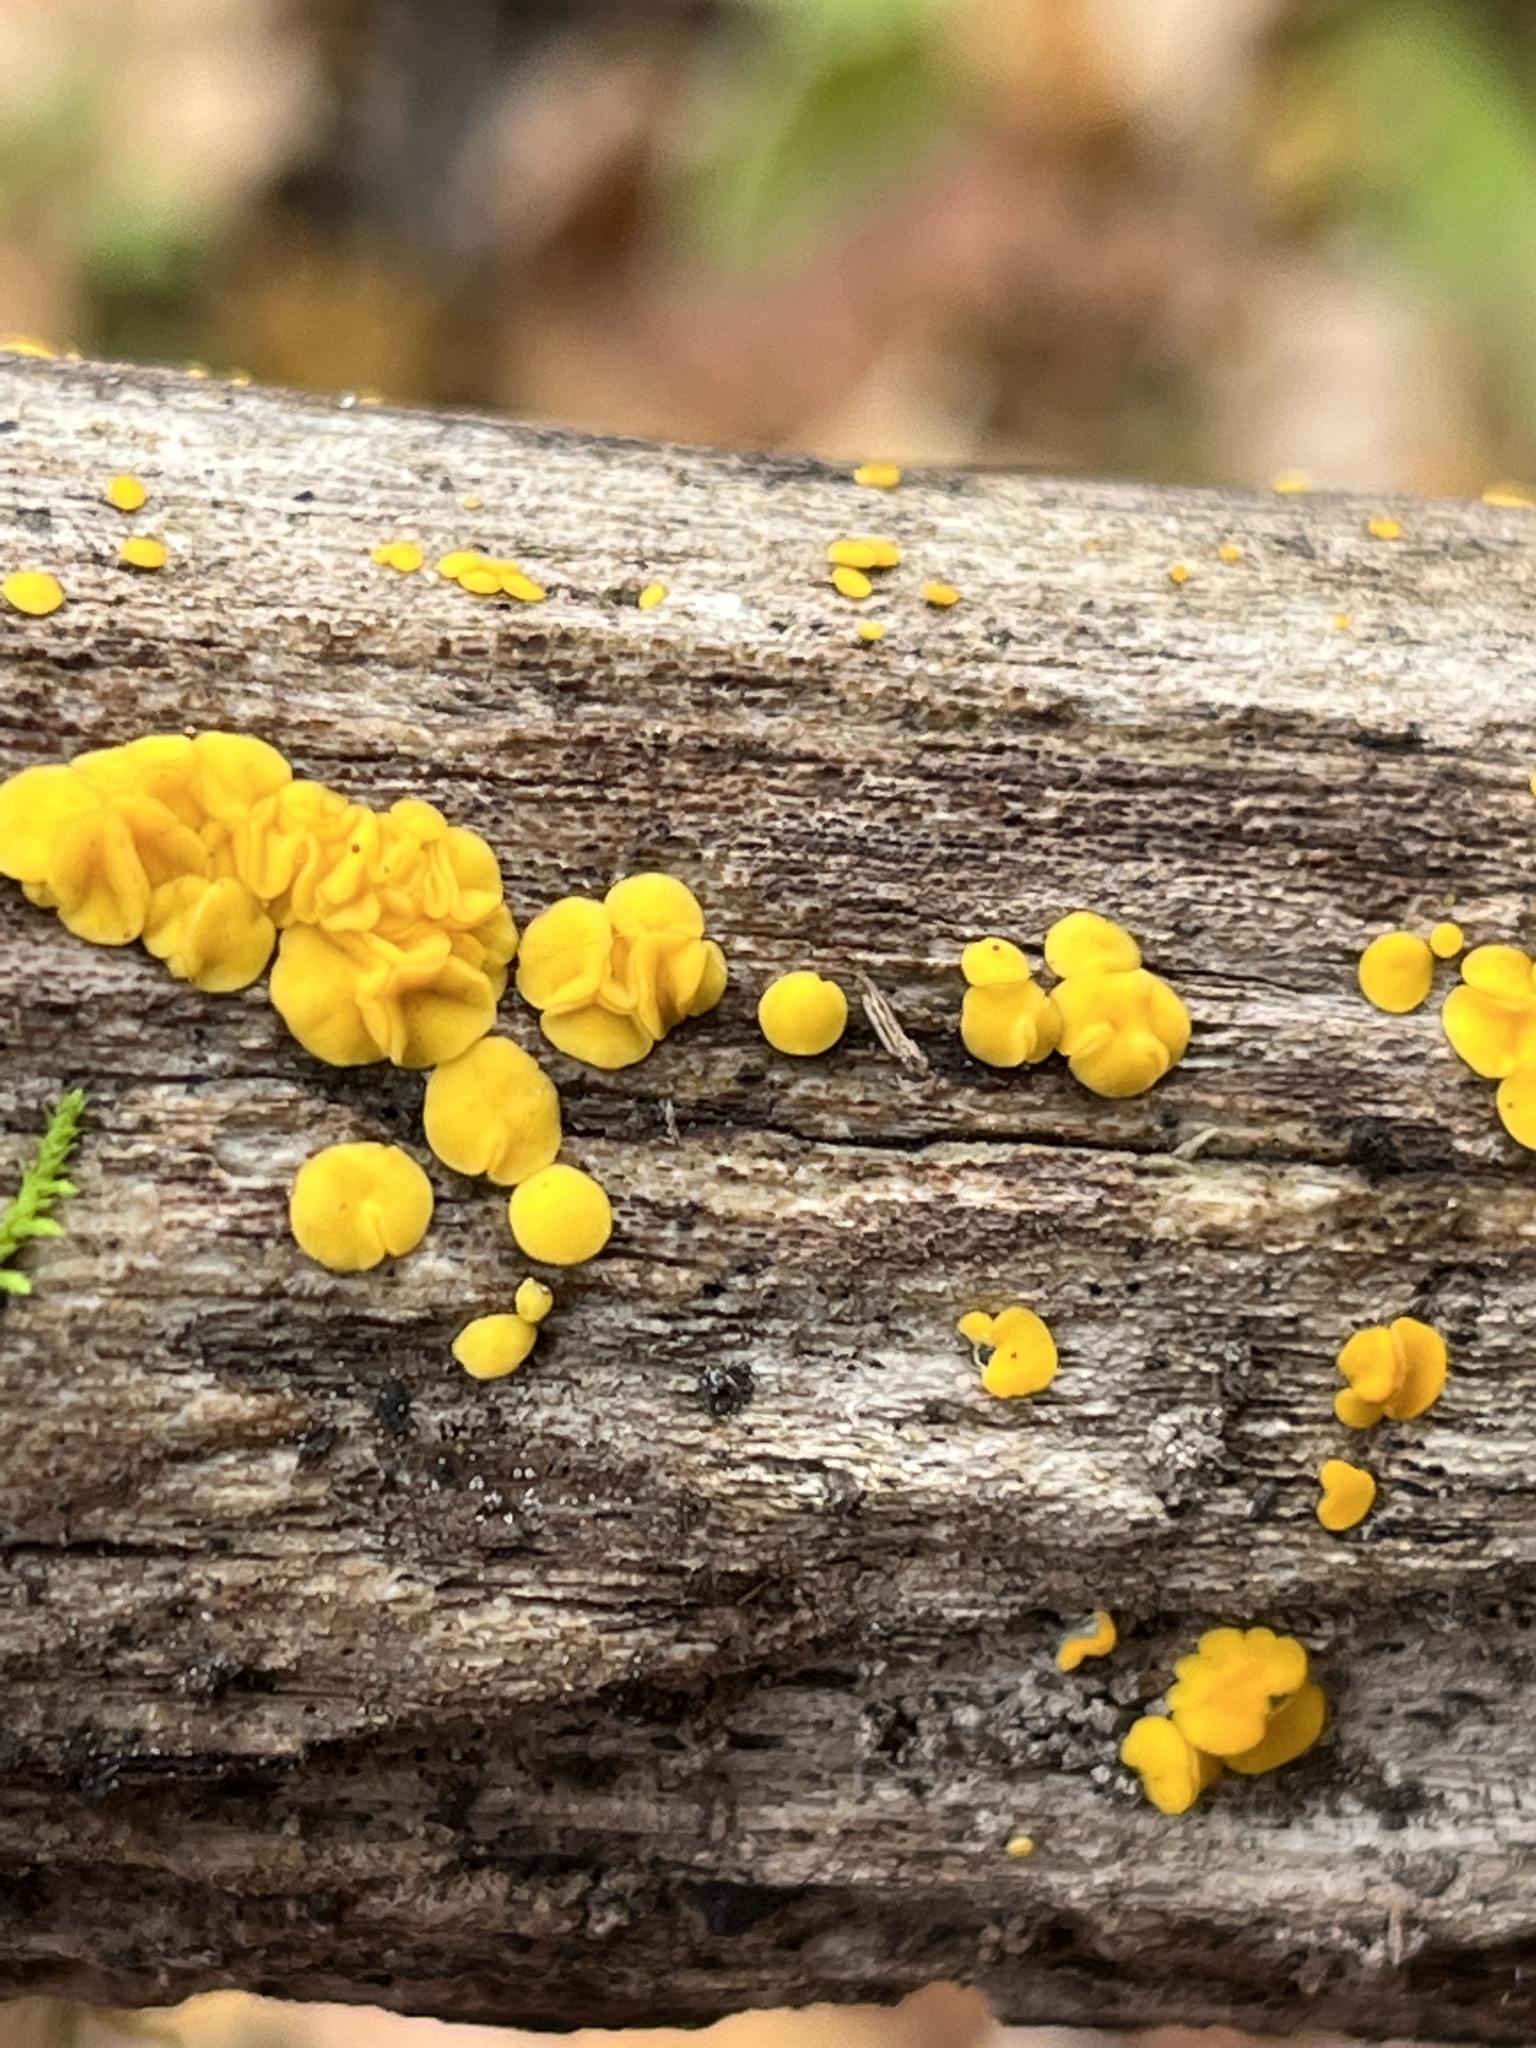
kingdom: Fungi
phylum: Ascomycota
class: Leotiomycetes
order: Helotiales
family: Pezizellaceae
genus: Calycina
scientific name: Calycina citrina
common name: Yellow fairy cups
